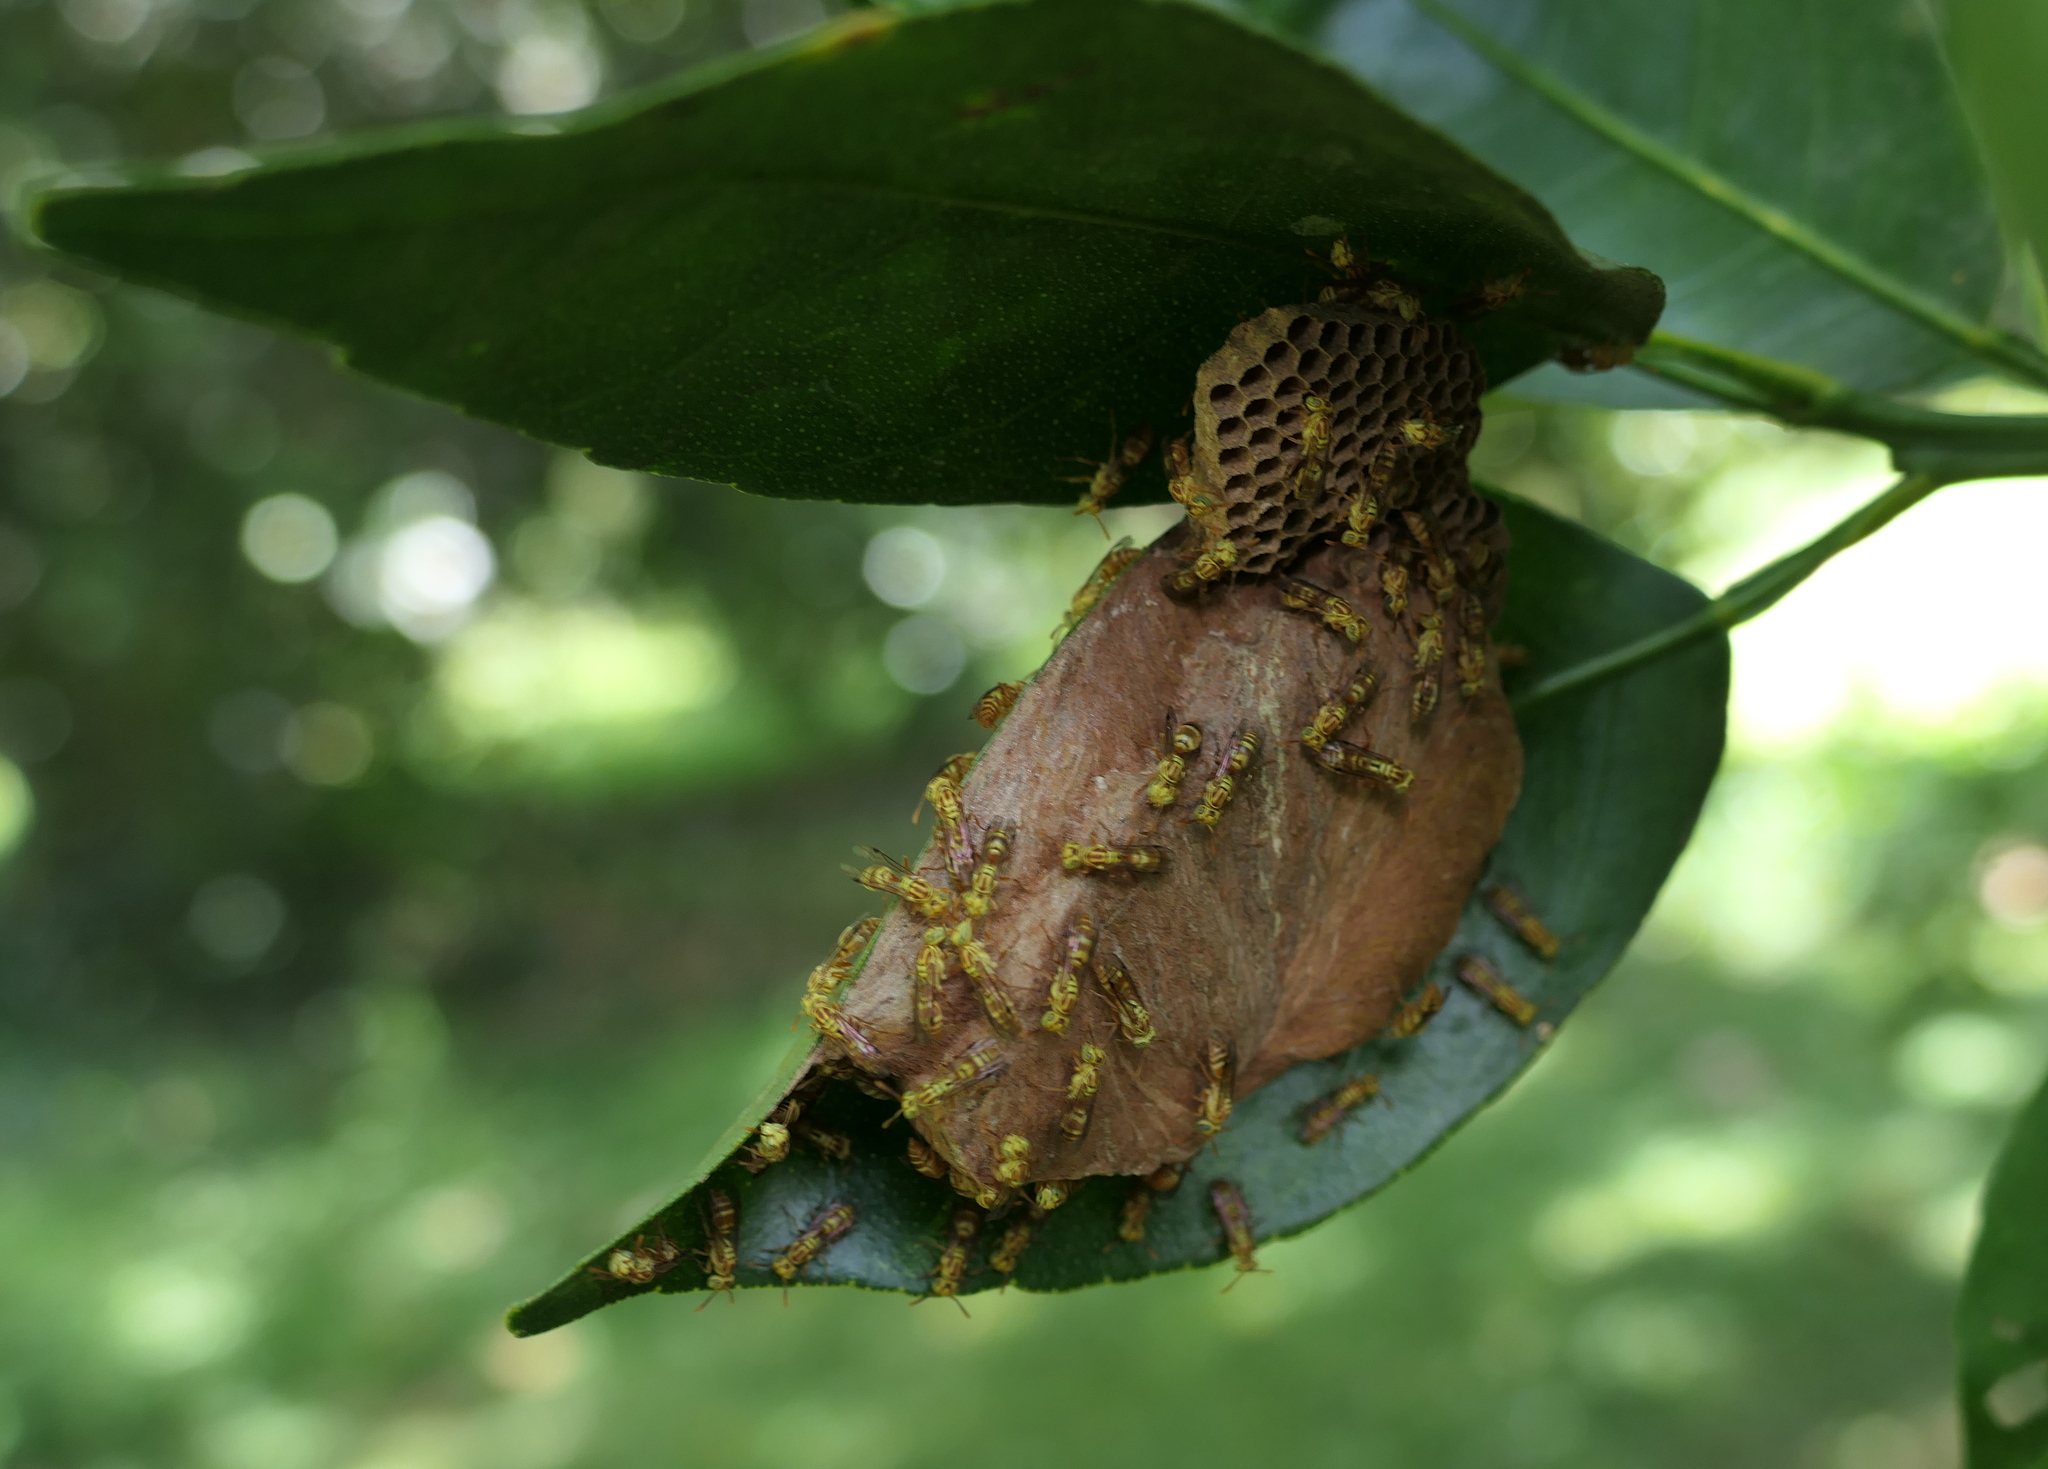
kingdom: Animalia
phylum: Arthropoda
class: Insecta
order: Hymenoptera
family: Vespidae
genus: Protopolybia
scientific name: Protopolybia potiguara
